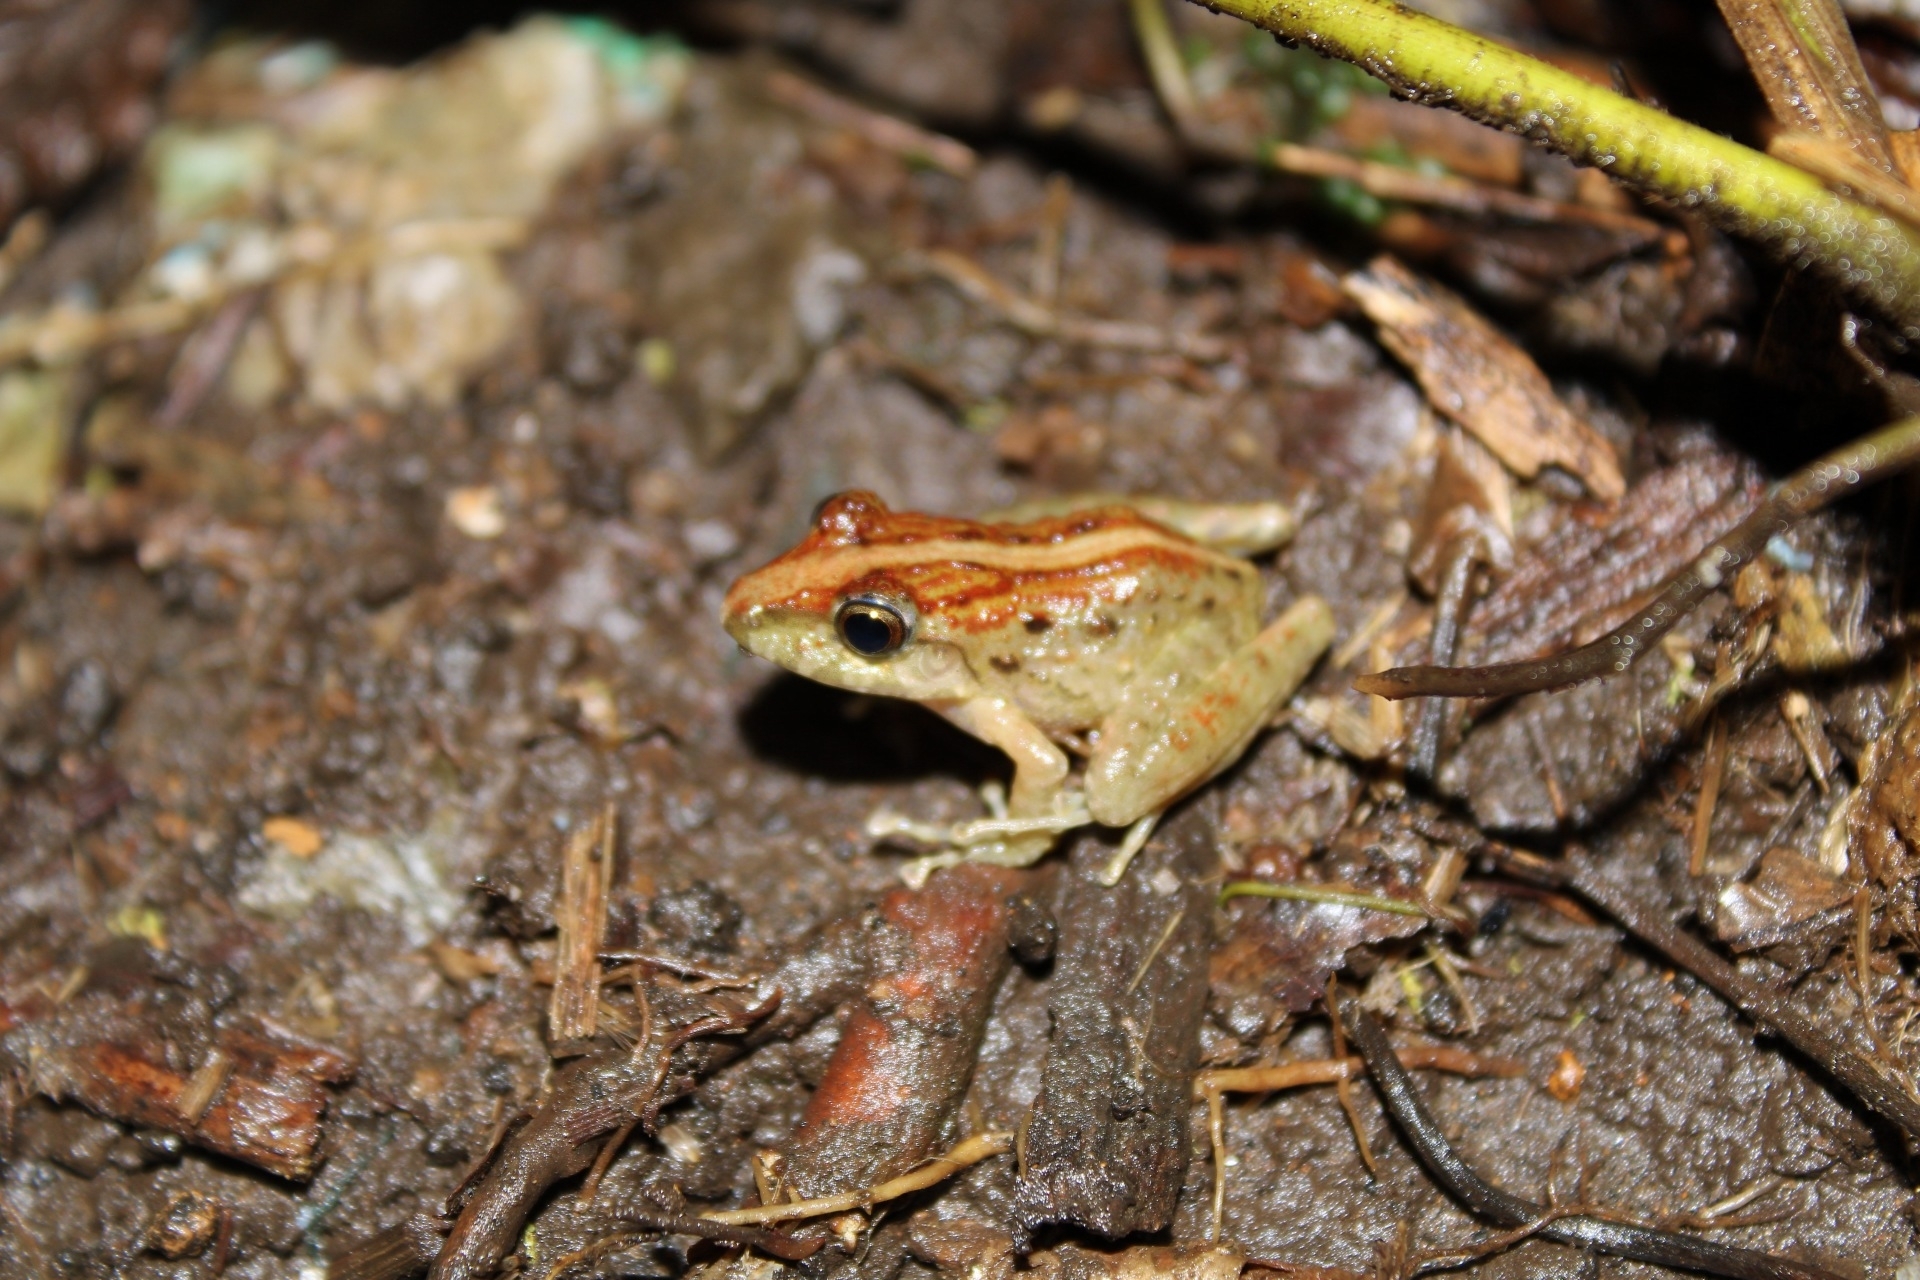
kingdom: Animalia
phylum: Chordata
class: Amphibia
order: Anura
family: Craugastoridae
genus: Craugastor
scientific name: Craugastor fitzingeri
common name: Fitzinger's robber frog
